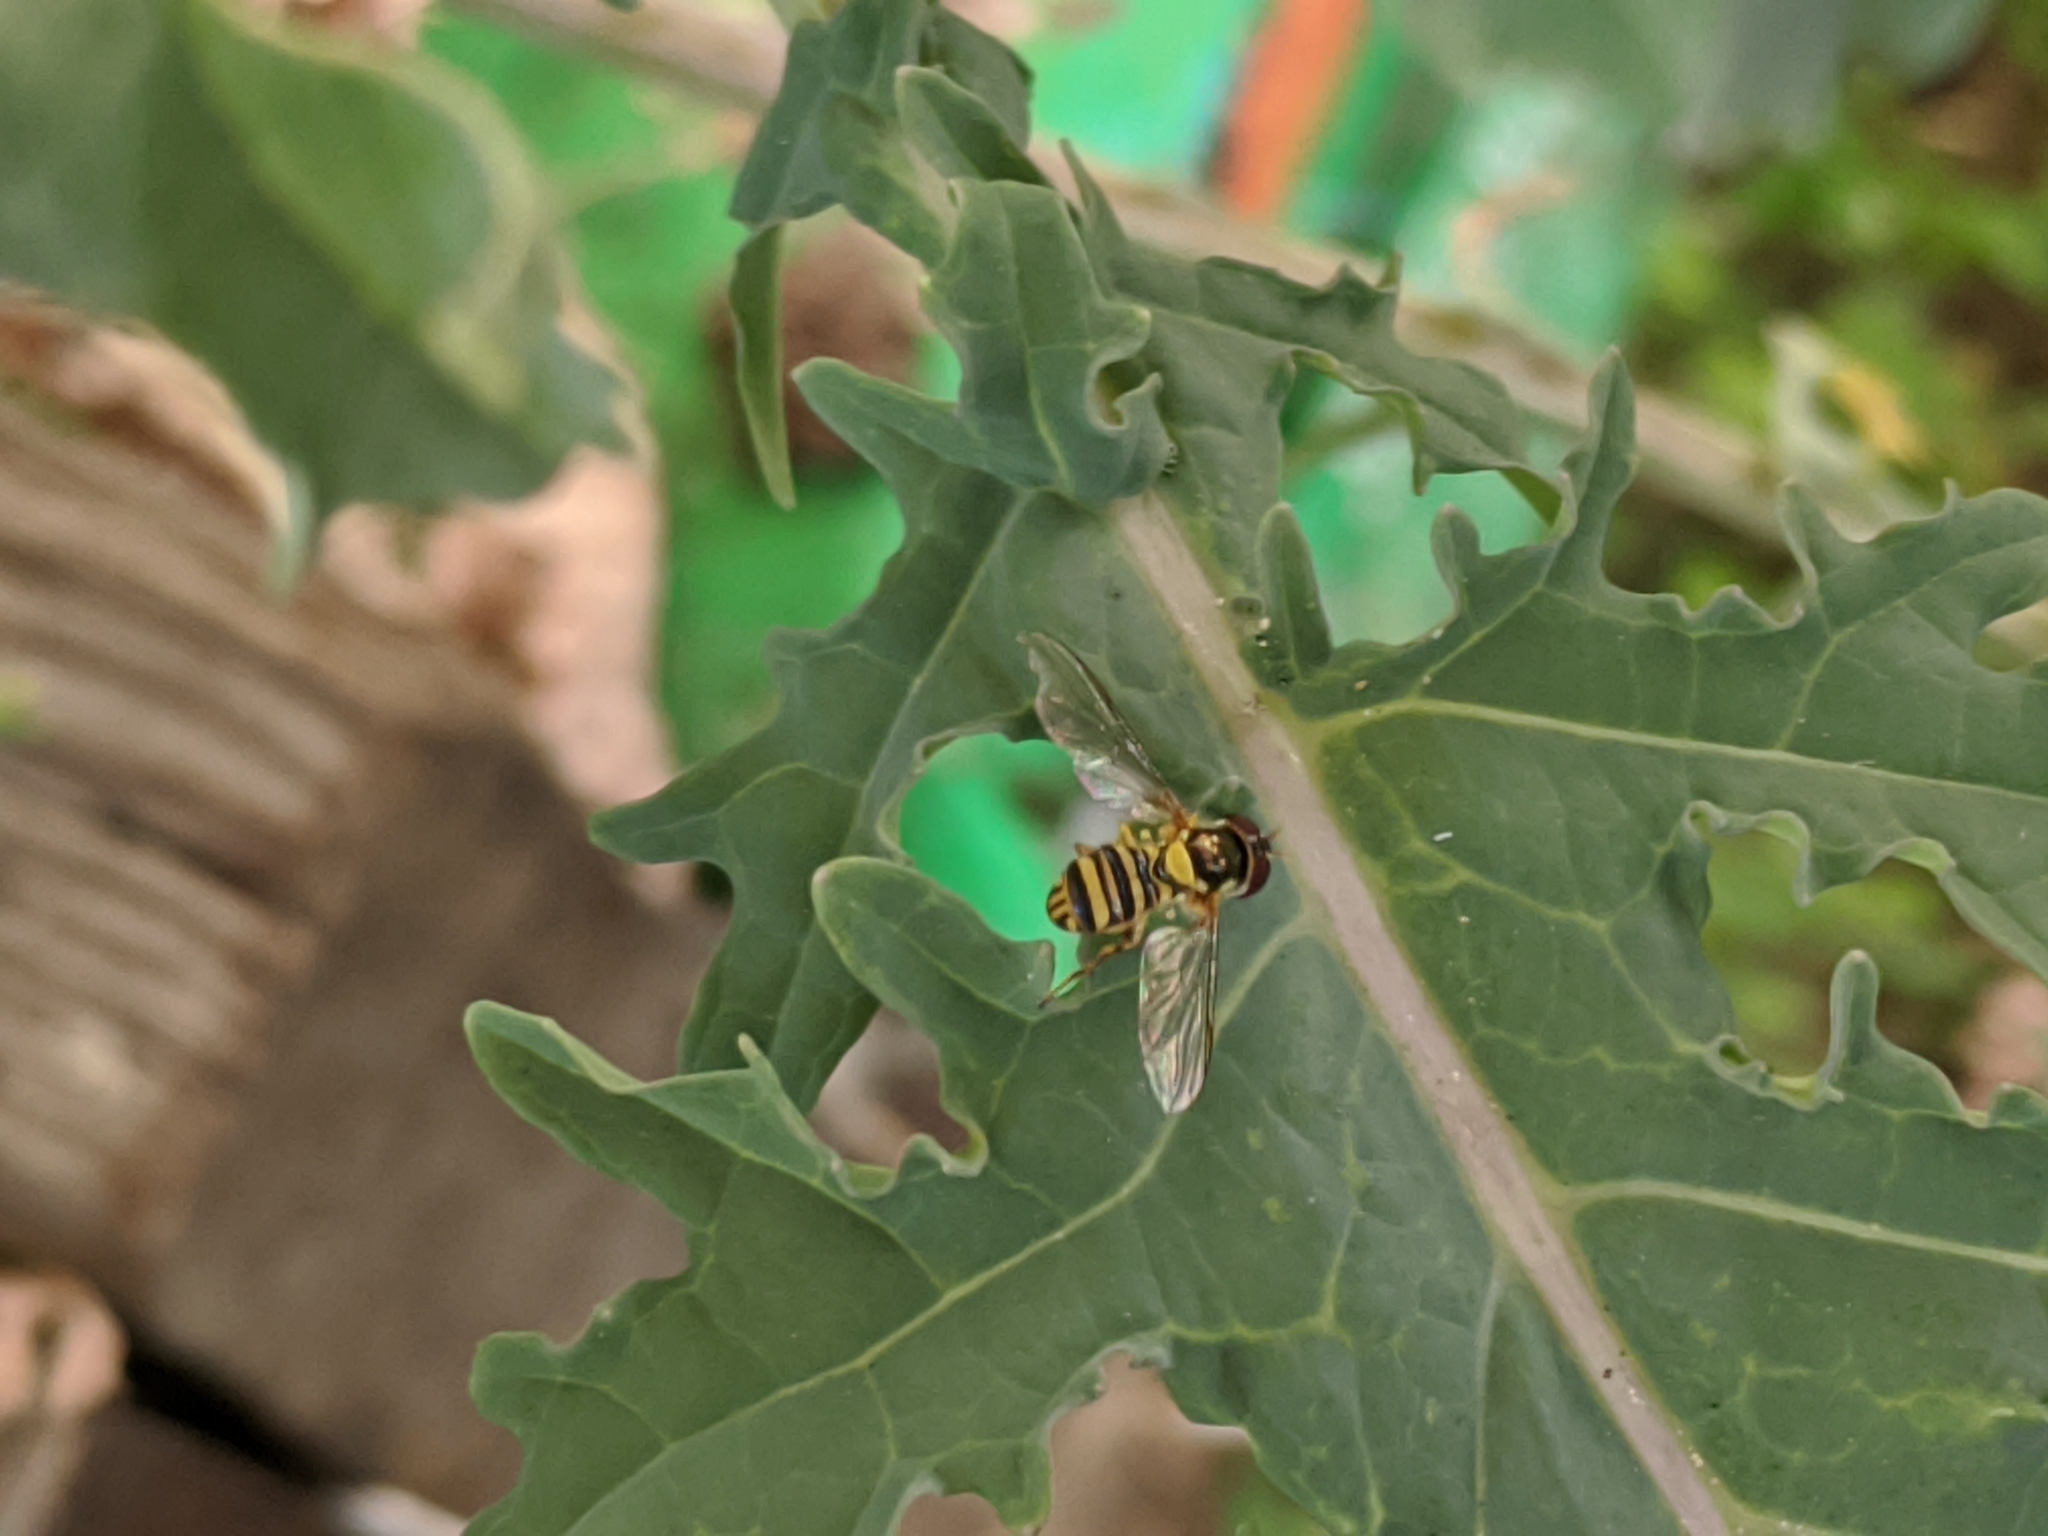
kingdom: Animalia
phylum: Arthropoda
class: Insecta
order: Diptera
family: Syrphidae
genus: Allograpta
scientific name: Allograpta obliqua
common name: Common oblique syrphid
